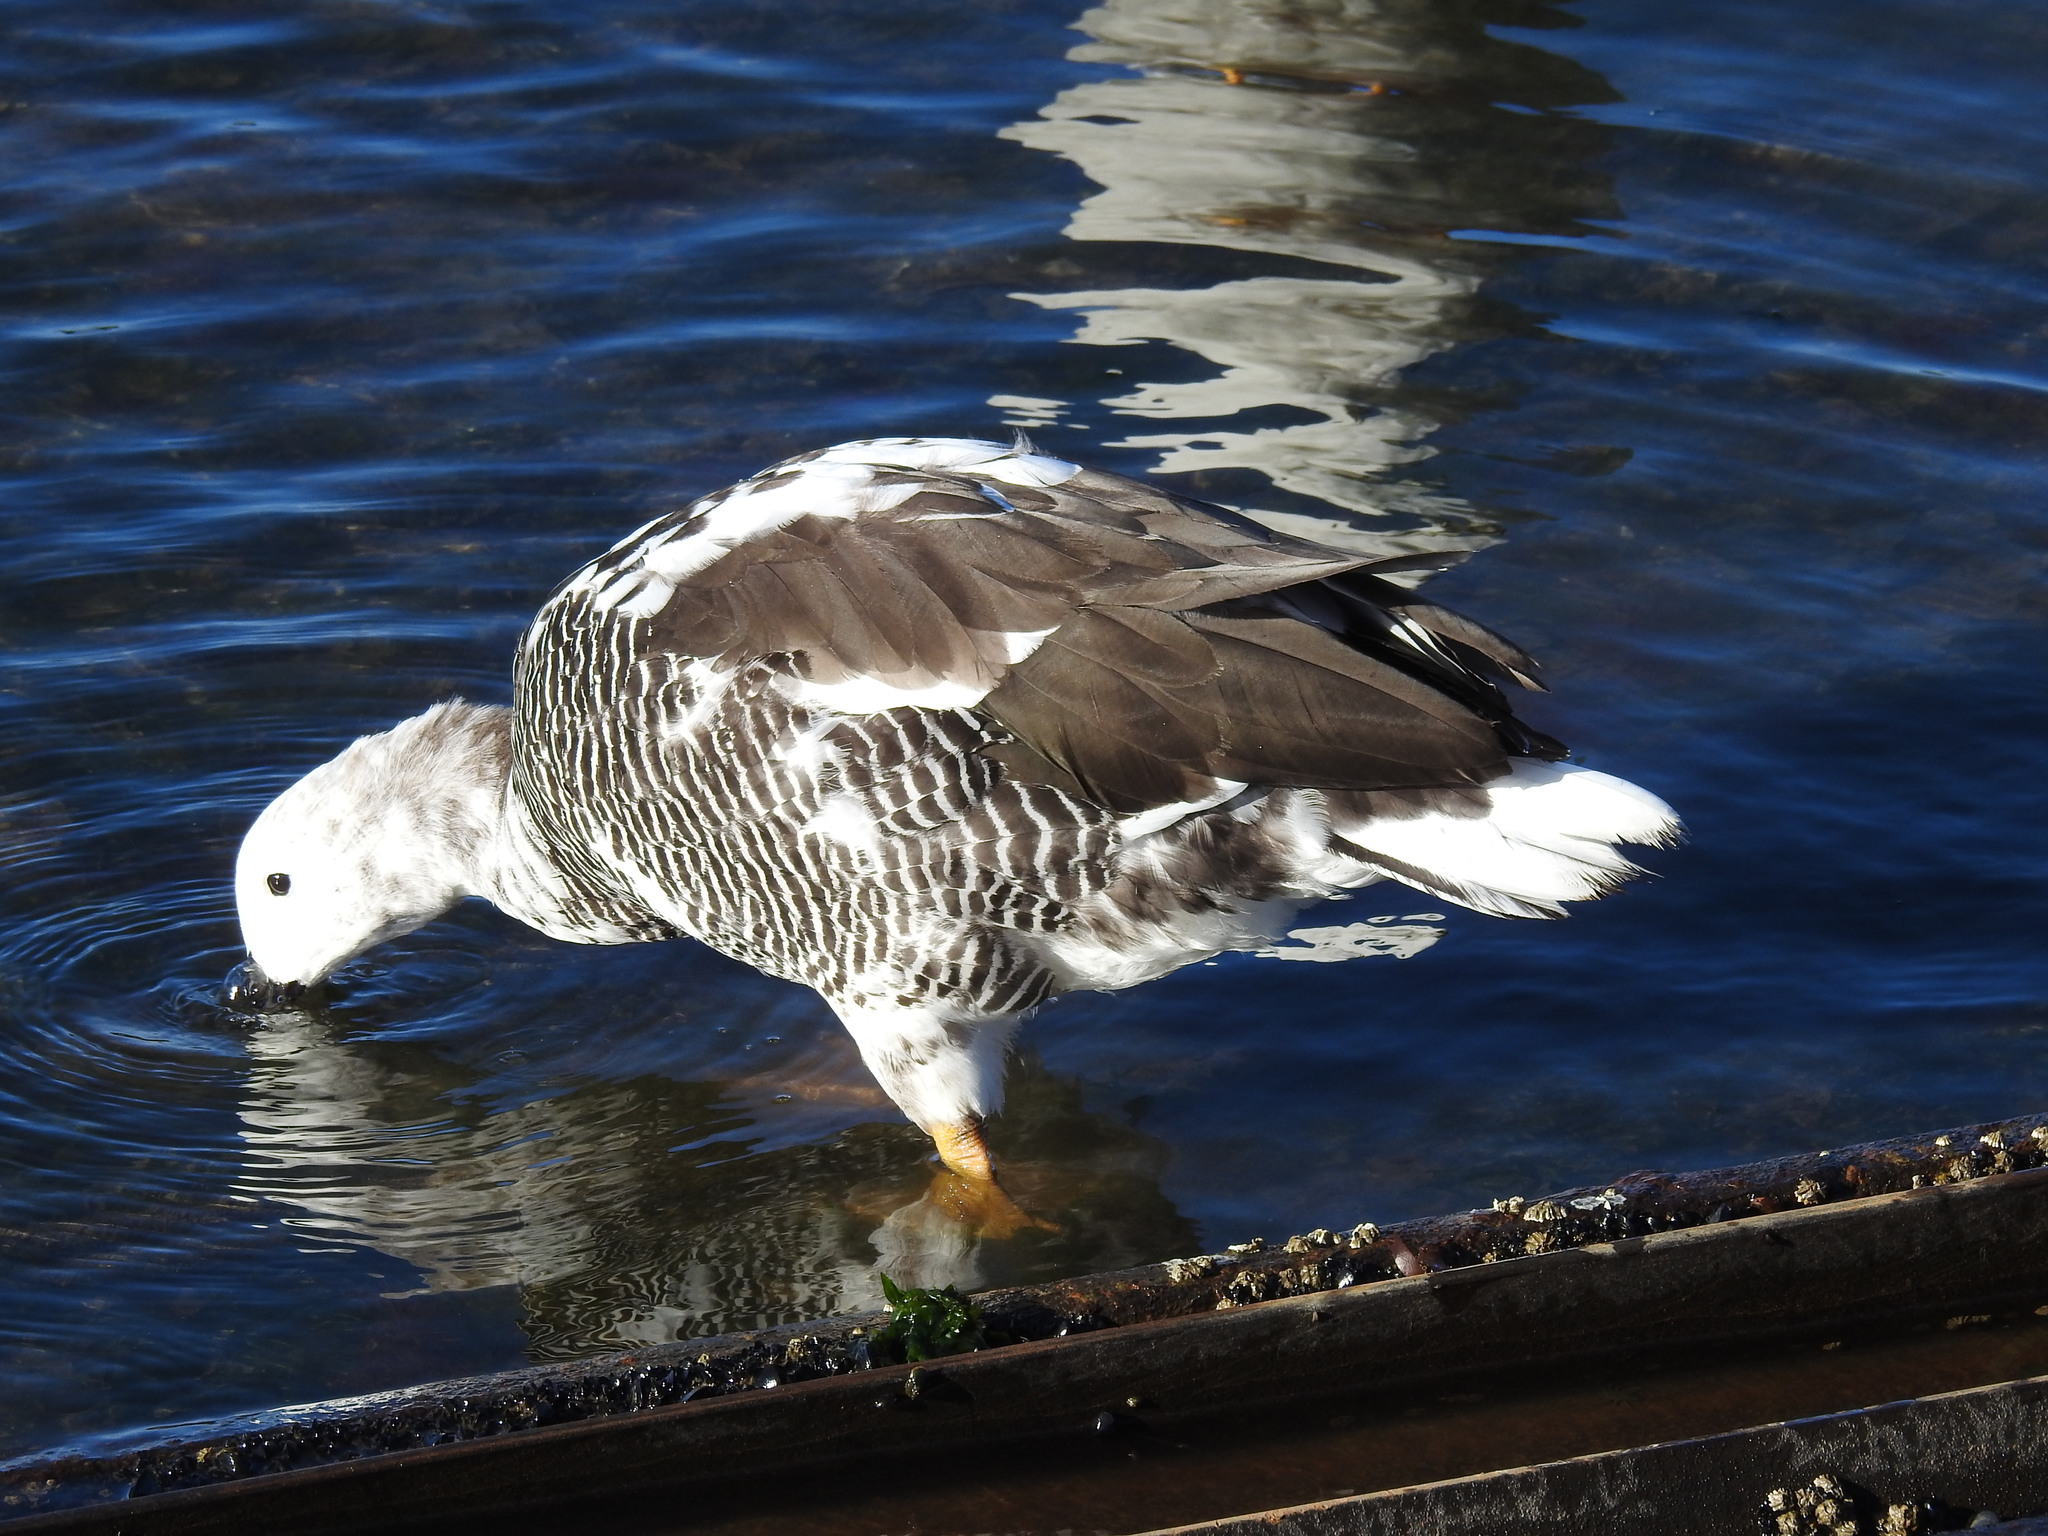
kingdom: Animalia
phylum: Chordata
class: Aves
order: Anseriformes
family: Anatidae
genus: Chloephaga
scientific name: Chloephaga hybrida
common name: Kelp goose
